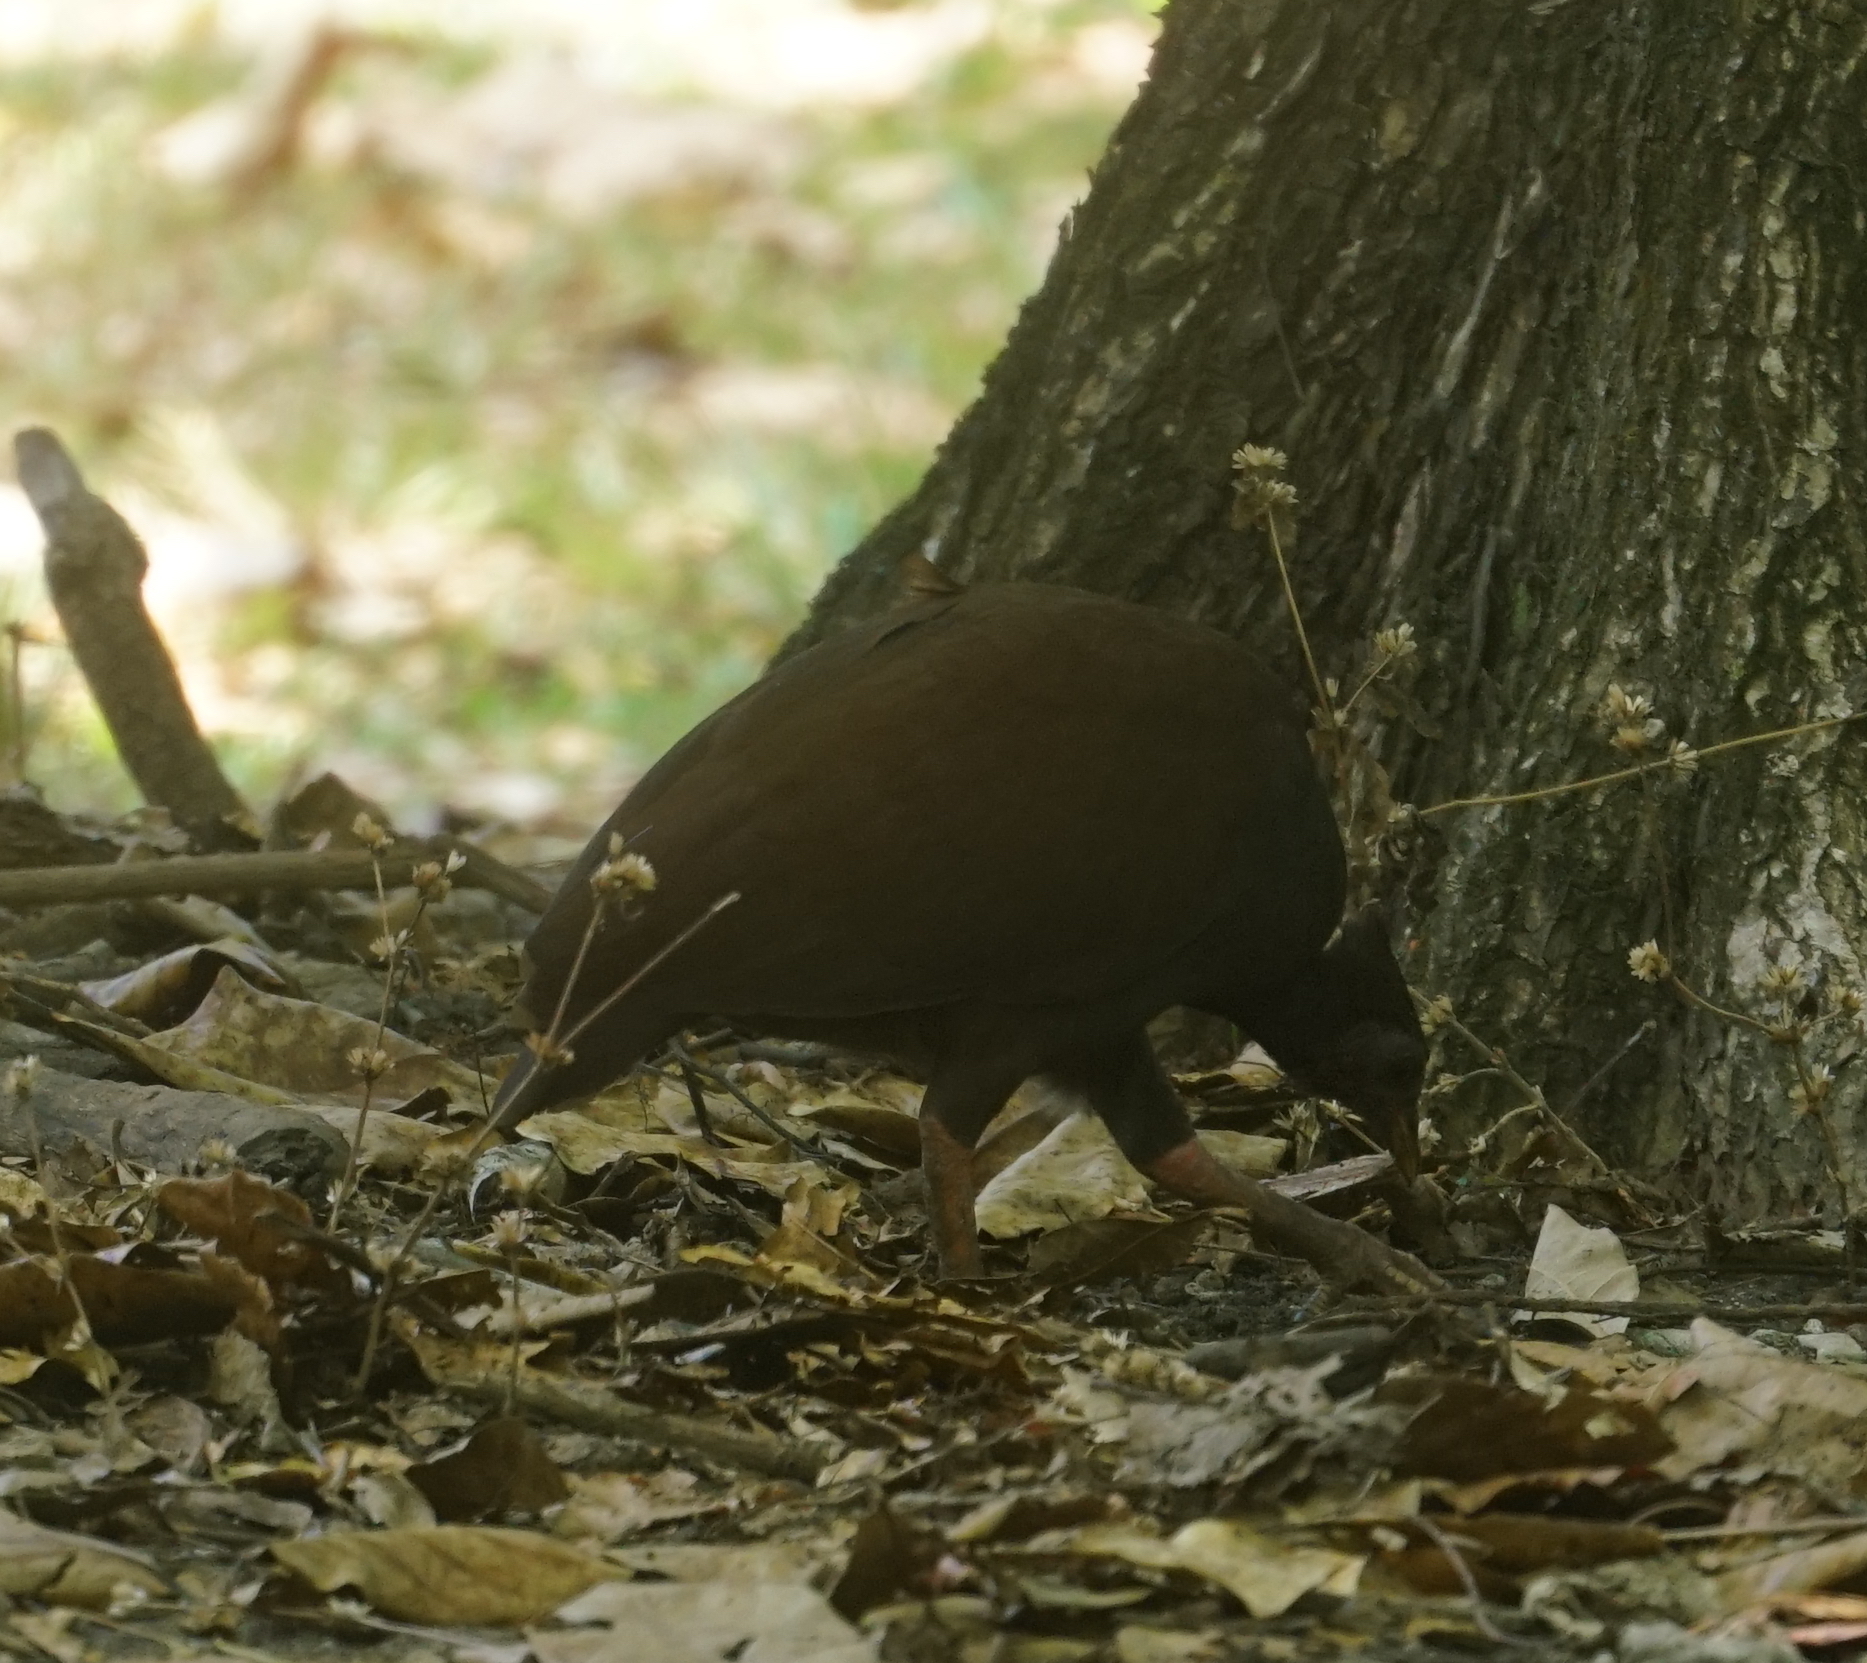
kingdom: Animalia
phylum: Chordata
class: Aves
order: Galliformes
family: Megapodiidae
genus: Megapodius
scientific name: Megapodius reinwardt
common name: Orange-footed scrubfowl
